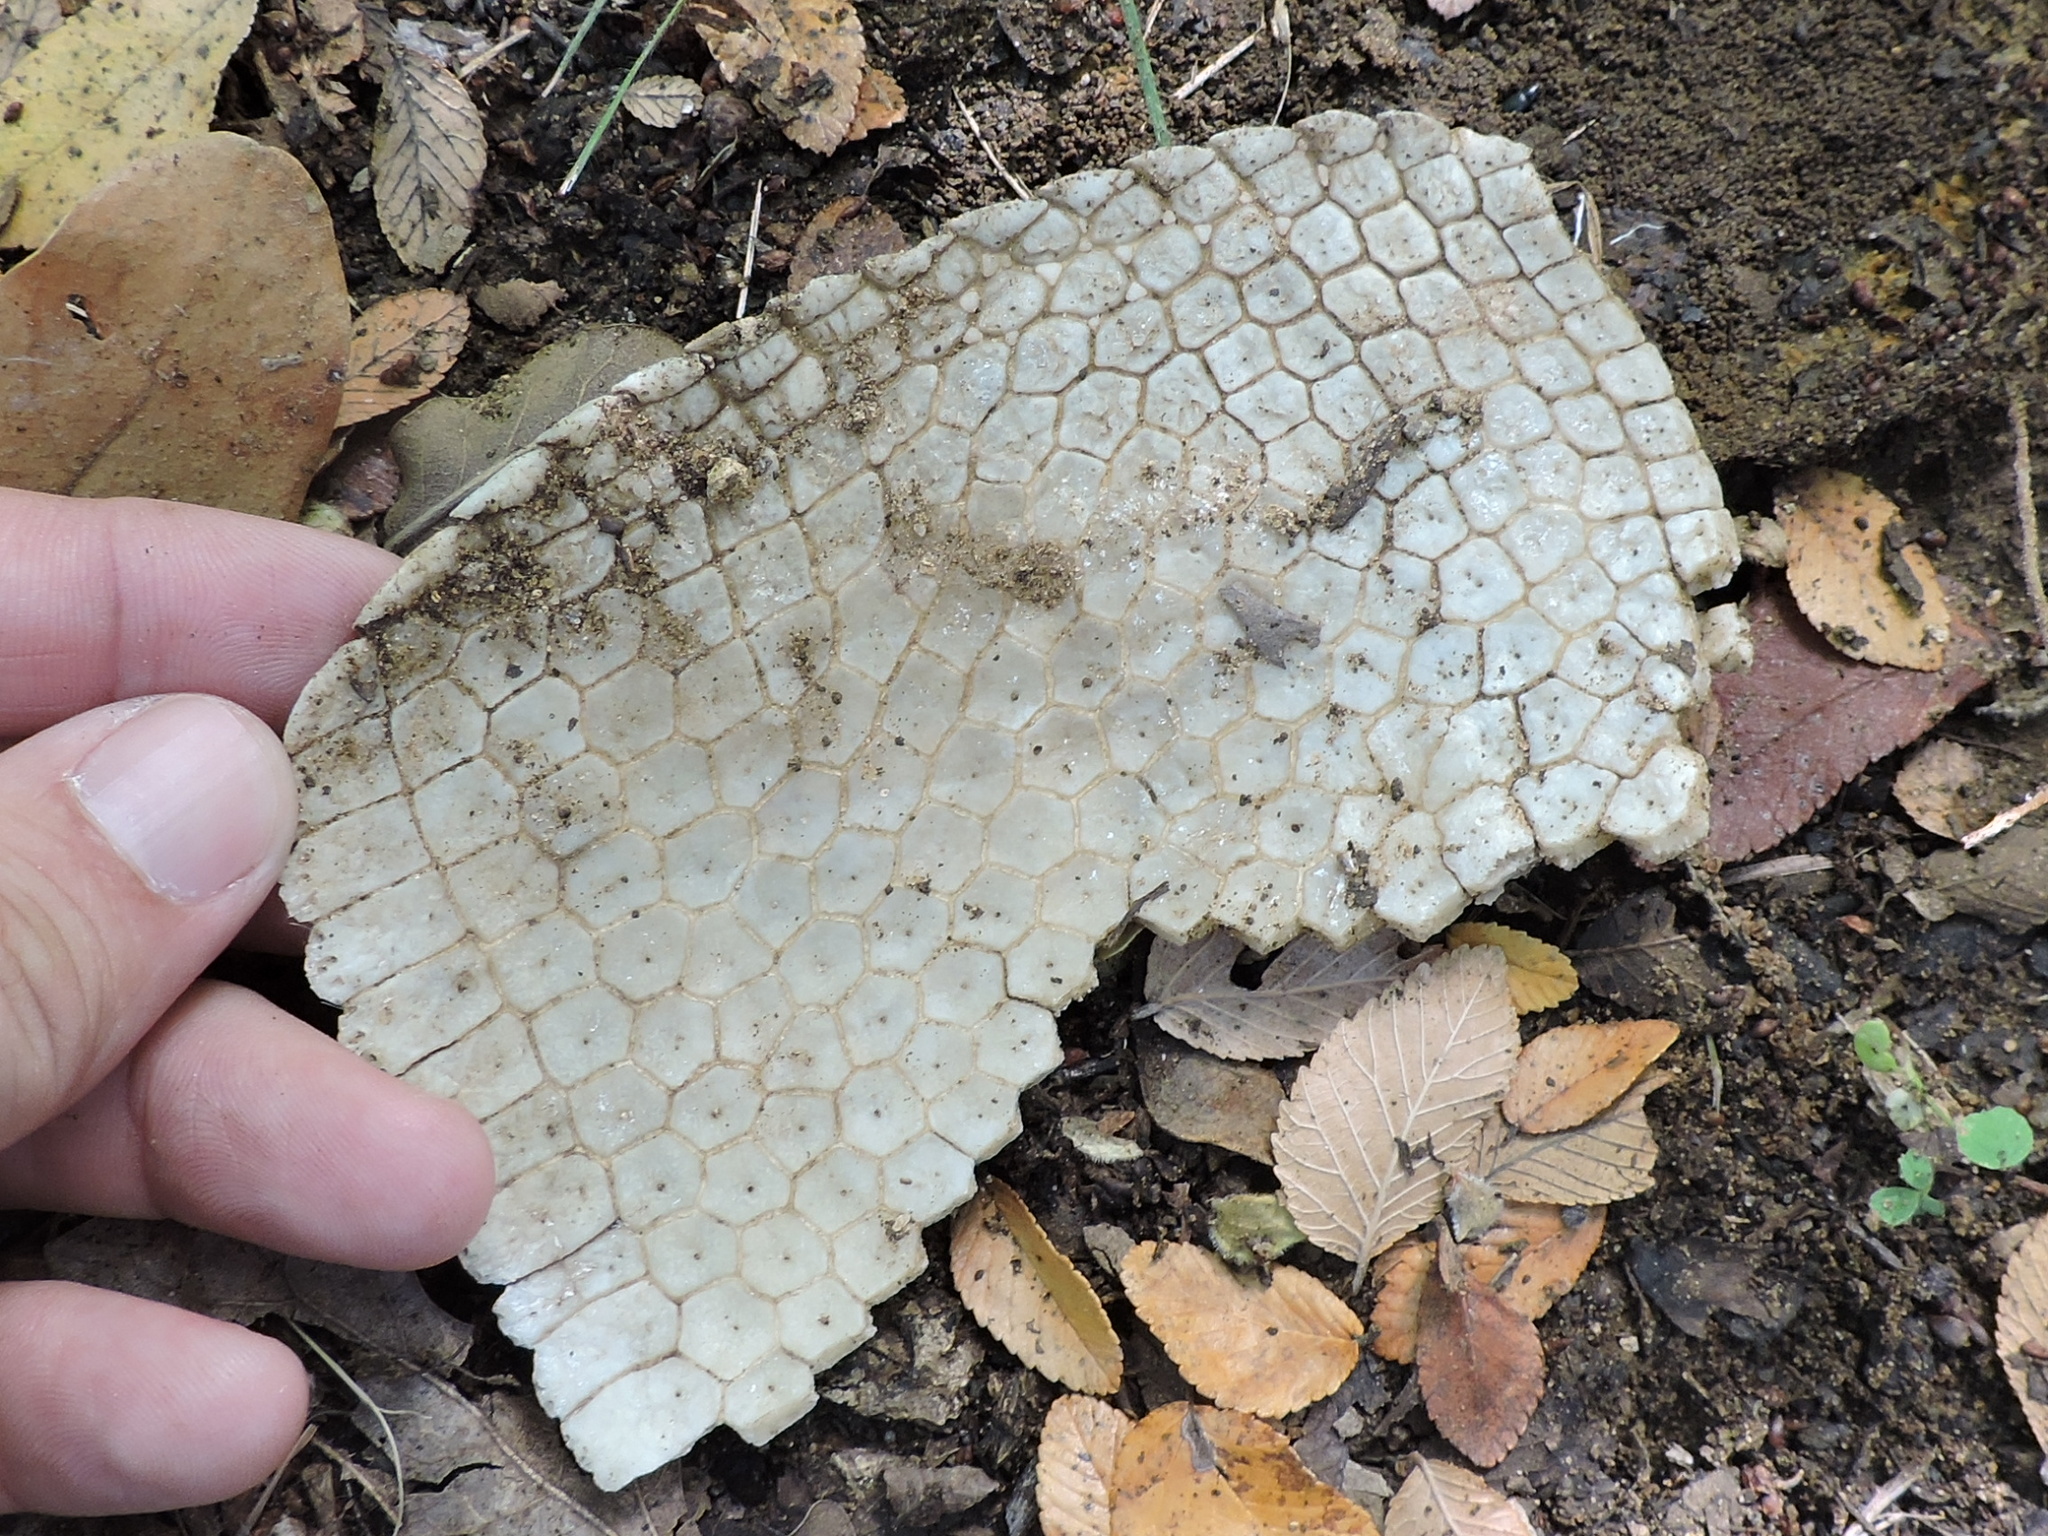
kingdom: Animalia
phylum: Chordata
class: Mammalia
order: Cingulata
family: Dasypodidae
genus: Dasypus
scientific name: Dasypus novemcinctus
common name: Nine-banded armadillo
